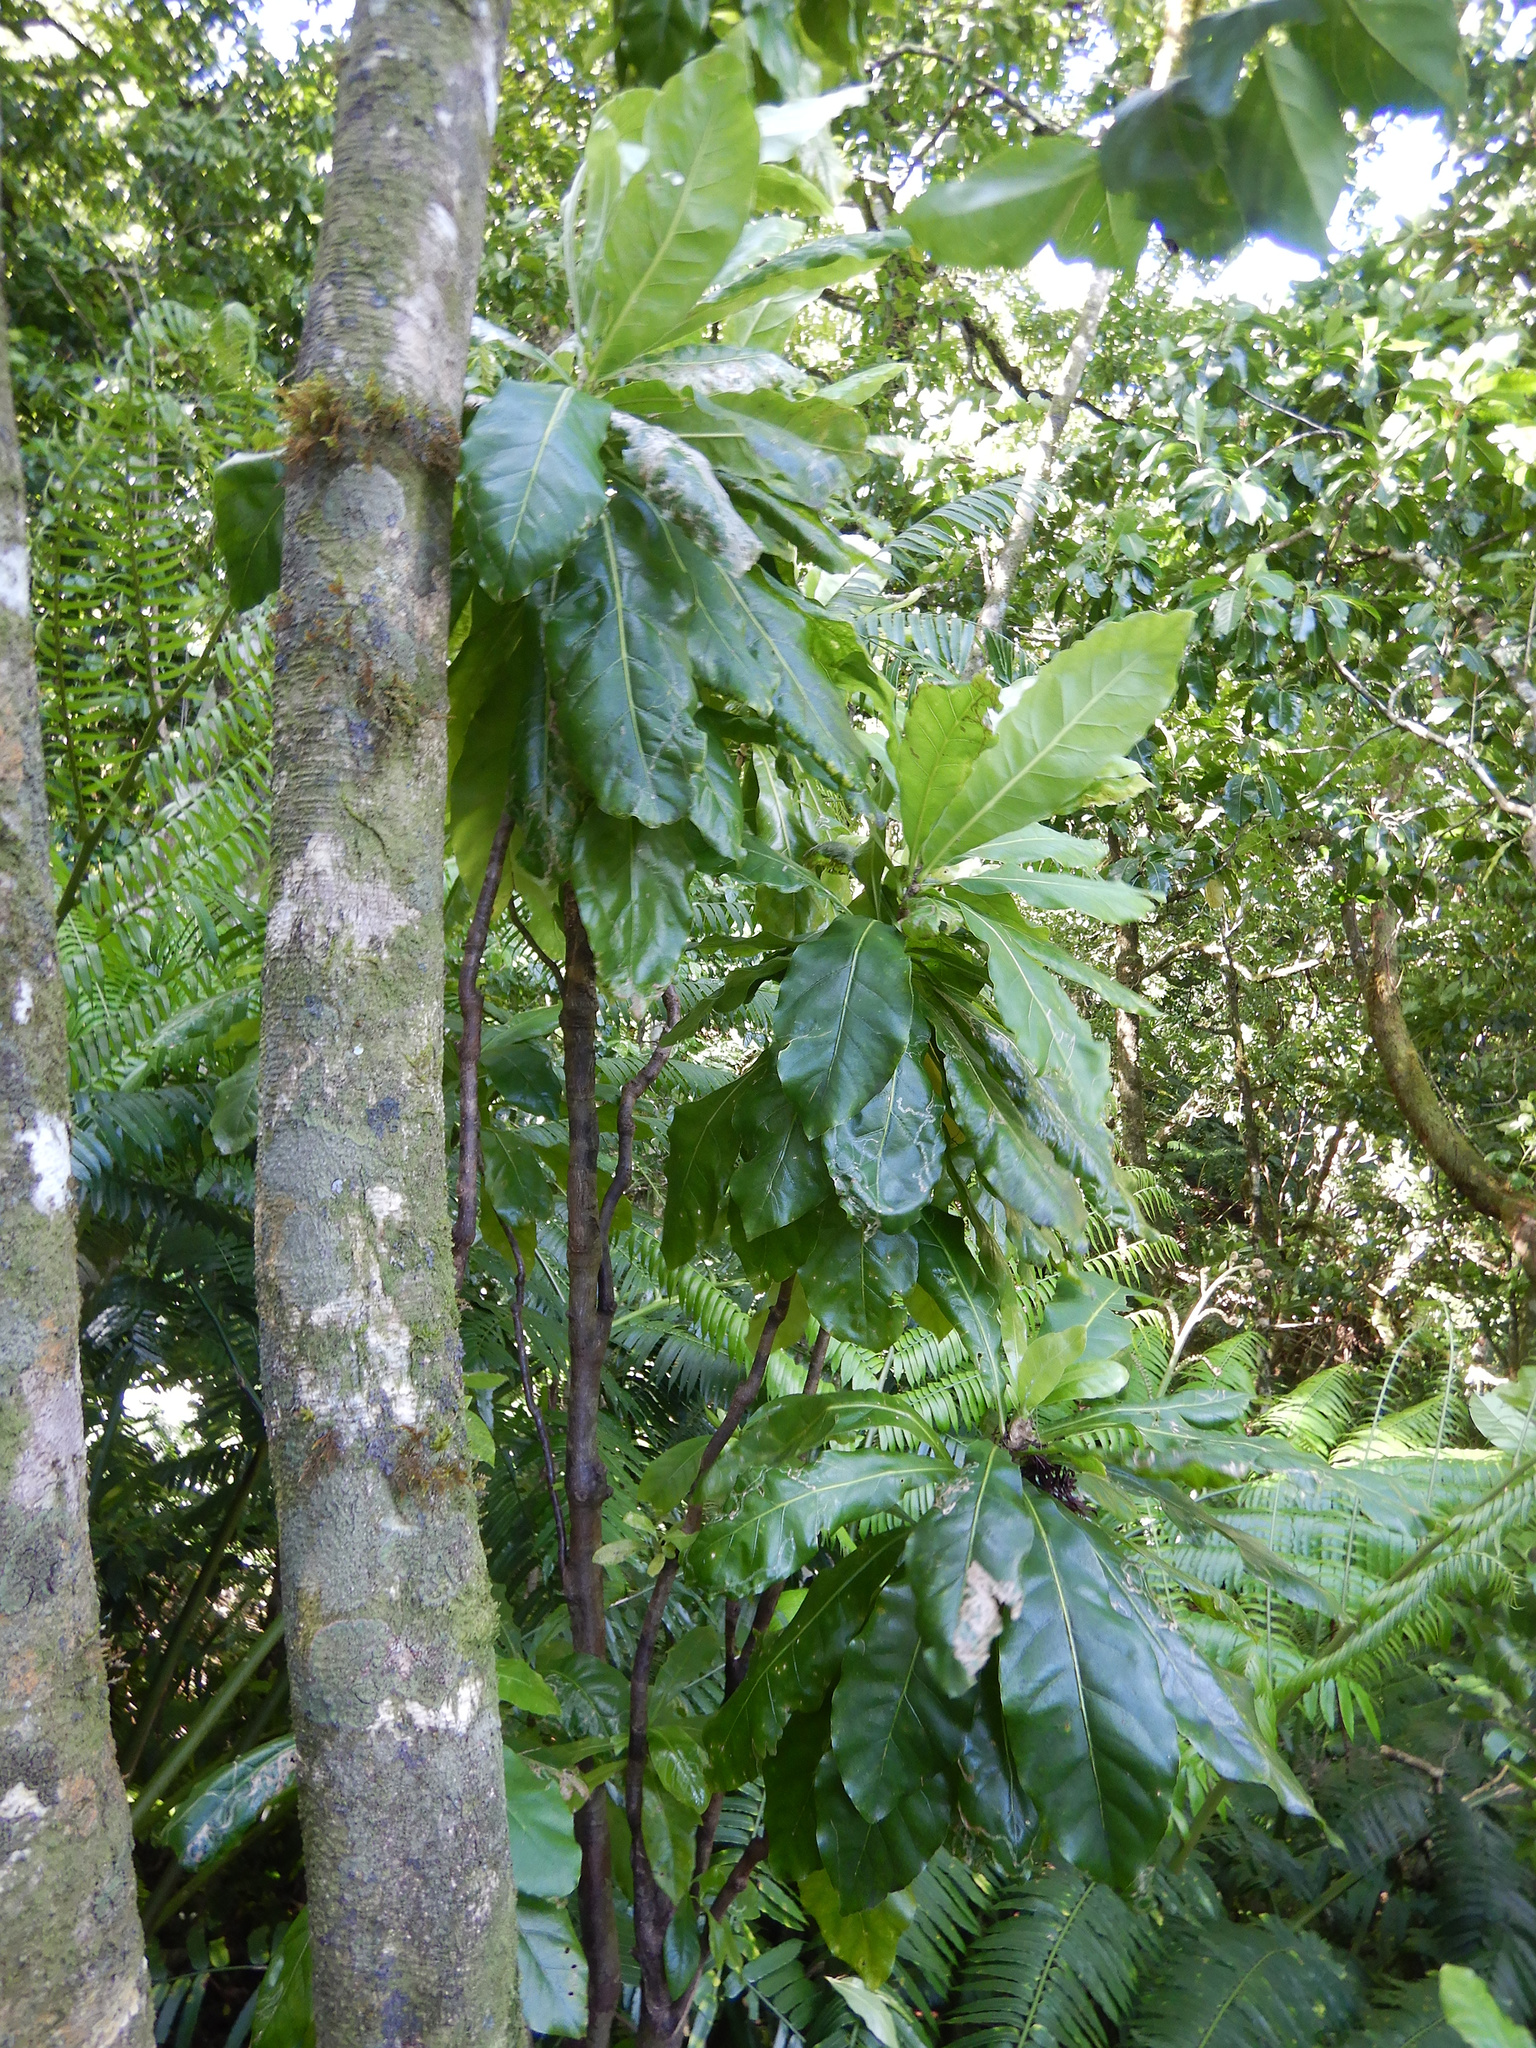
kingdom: Plantae
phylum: Tracheophyta
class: Magnoliopsida
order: Apiales
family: Araliaceae
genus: Meryta
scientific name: Meryta pauciflora
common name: Rarotonga meryta
